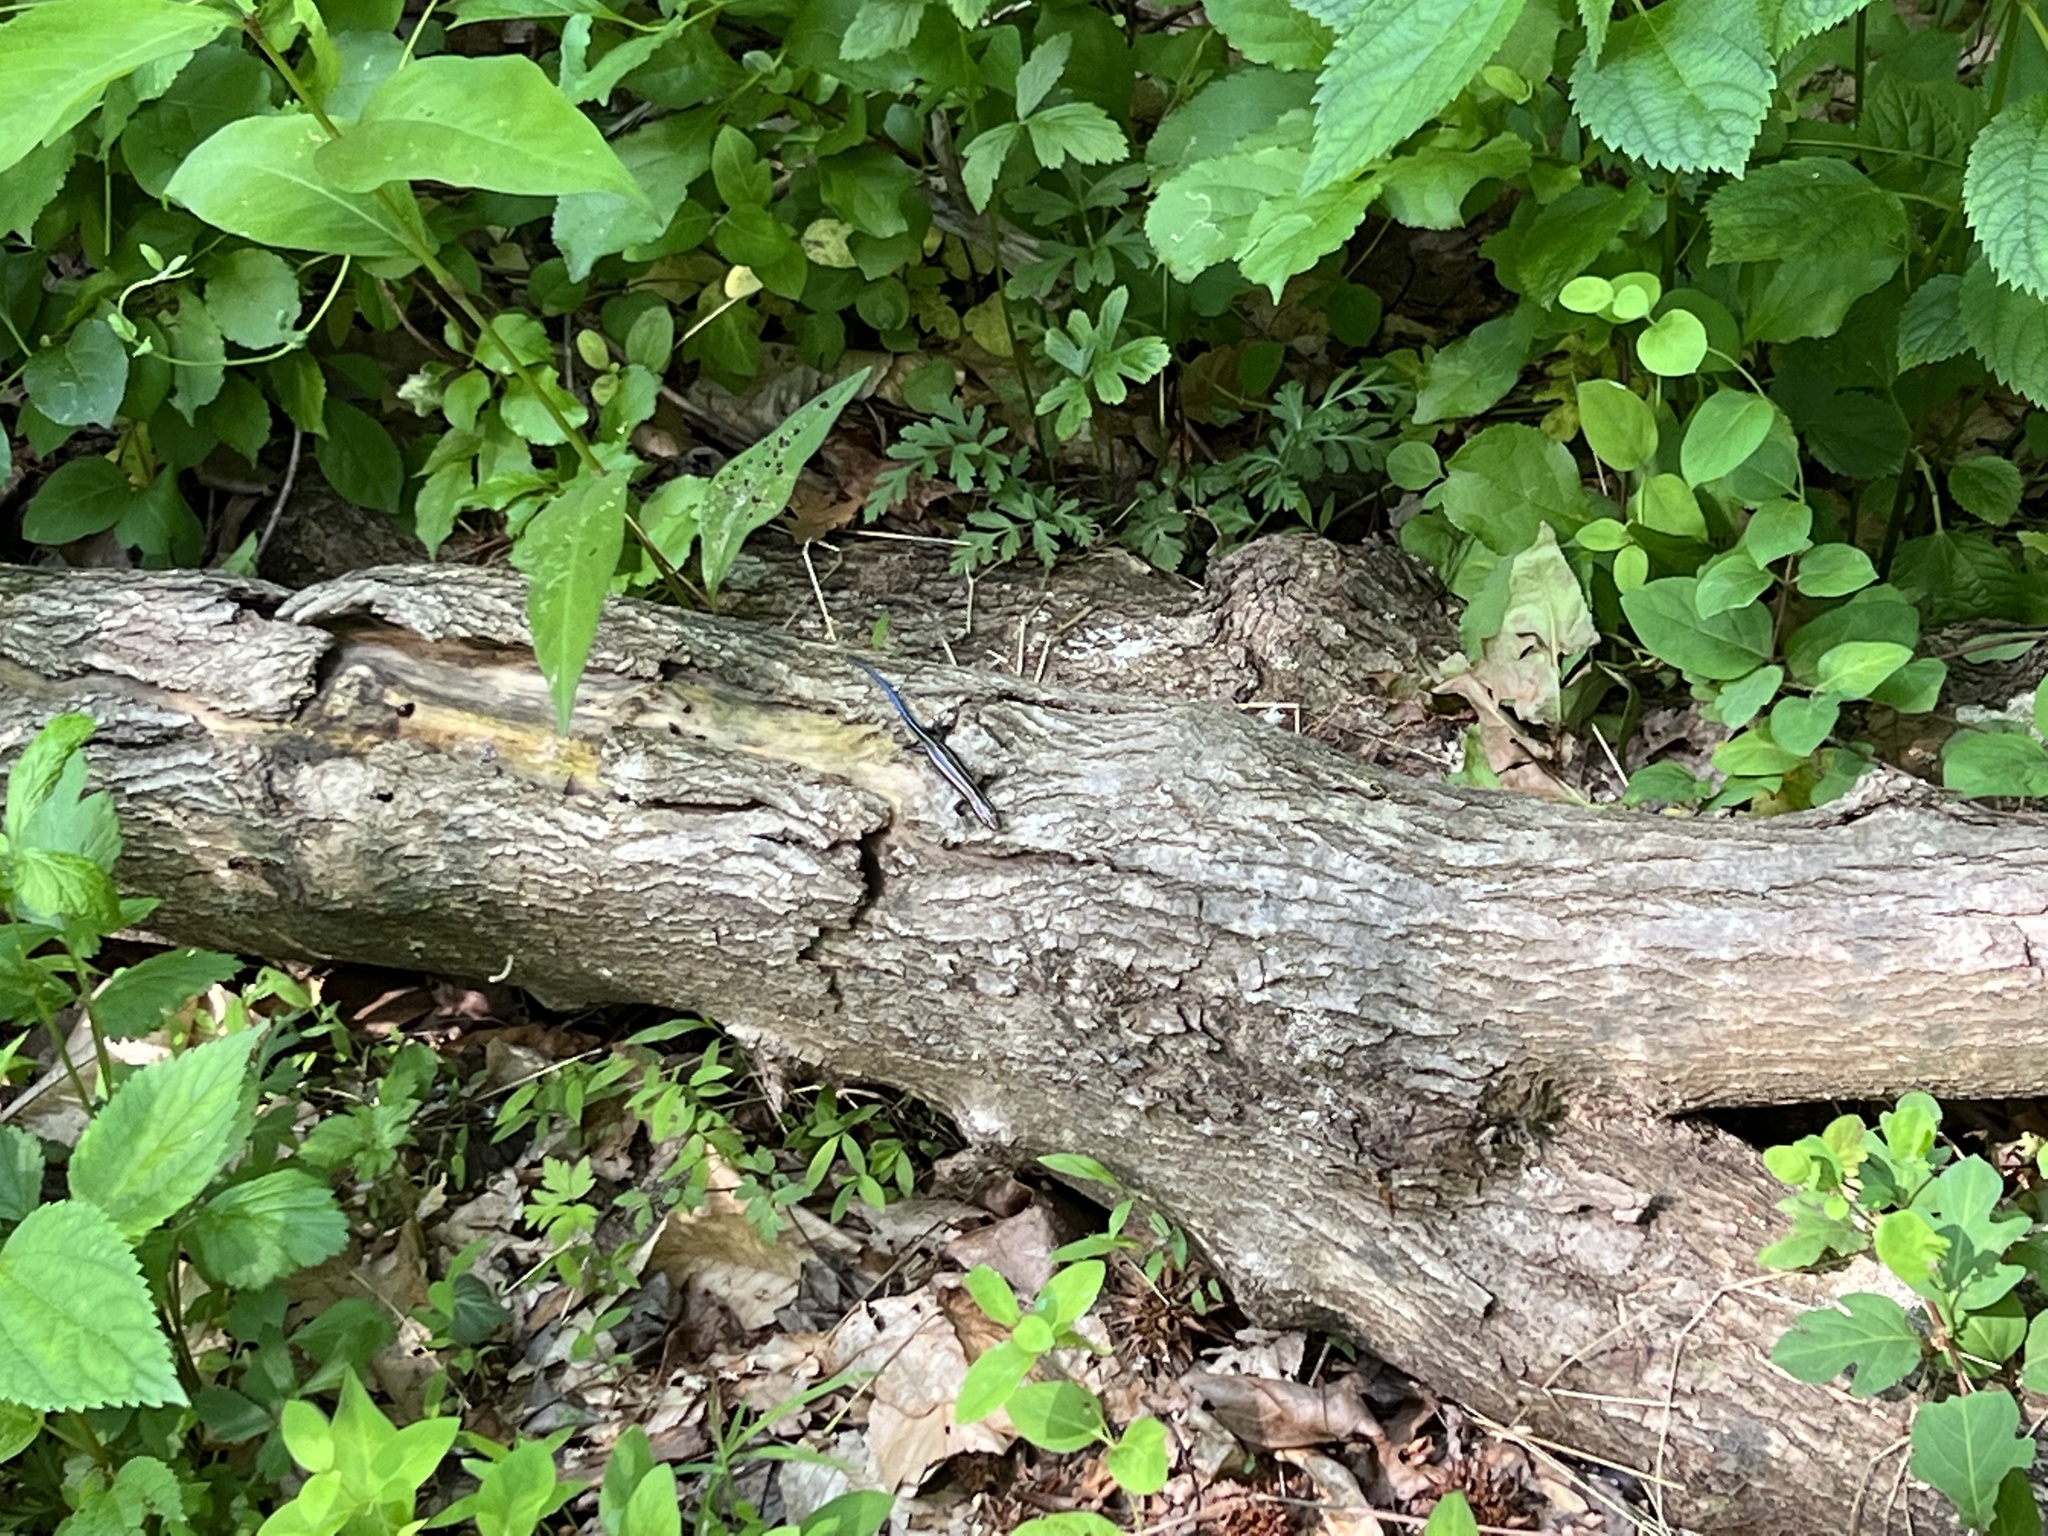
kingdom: Animalia
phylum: Chordata
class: Squamata
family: Scincidae
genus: Plestiodon
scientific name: Plestiodon fasciatus
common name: Five-lined skink
